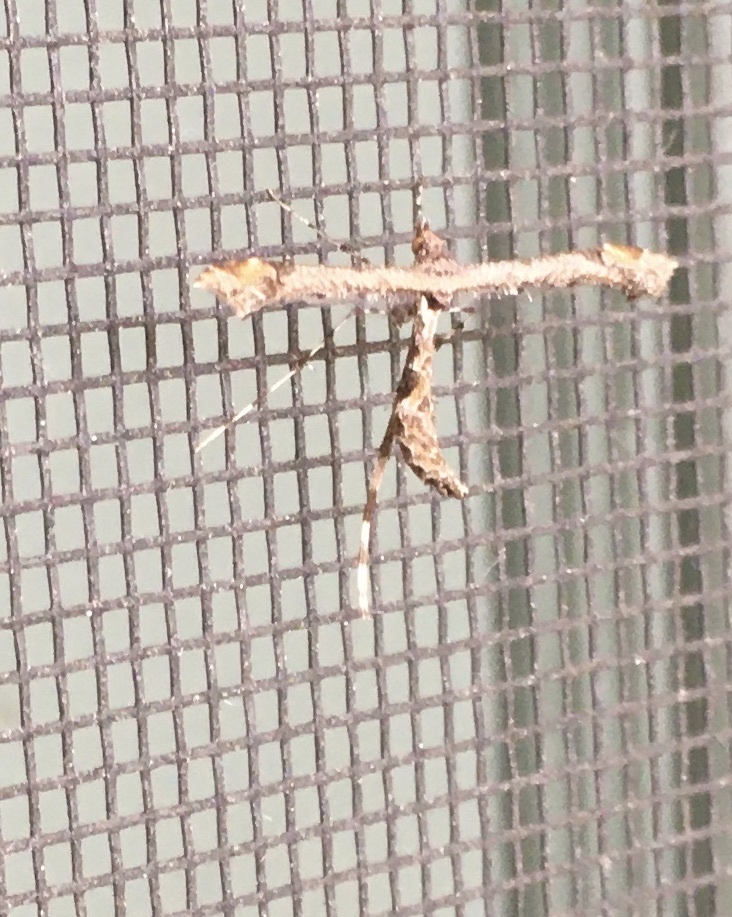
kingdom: Animalia
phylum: Arthropoda
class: Insecta
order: Lepidoptera
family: Pterophoridae
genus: Amblyptilia
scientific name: Amblyptilia pica
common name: Geranium plume moth
